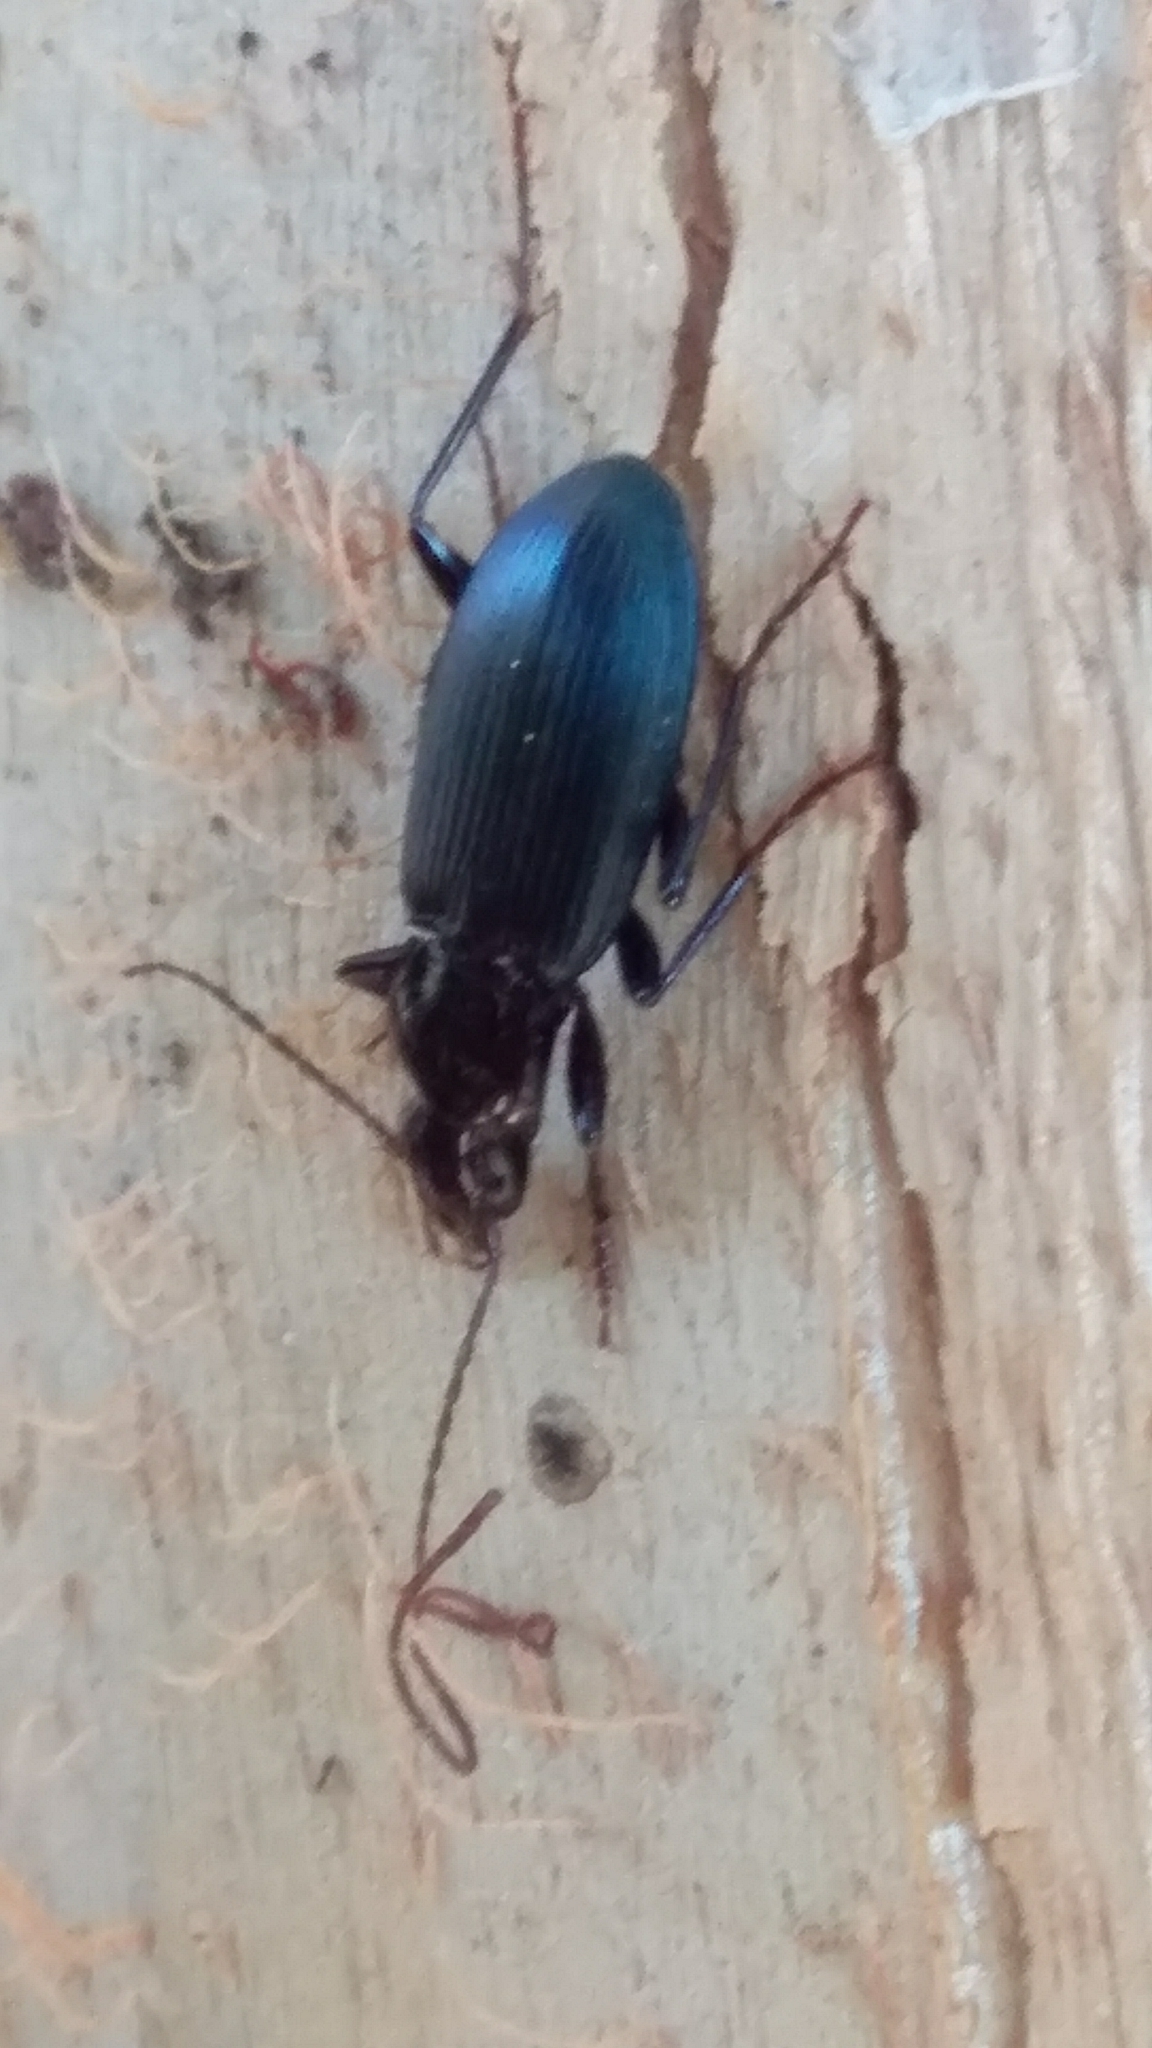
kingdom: Animalia
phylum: Arthropoda
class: Insecta
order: Coleoptera
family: Carabidae
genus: Laemostenus
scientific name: Laemostenus complanatus
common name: Cosmopolitan ground beetle
